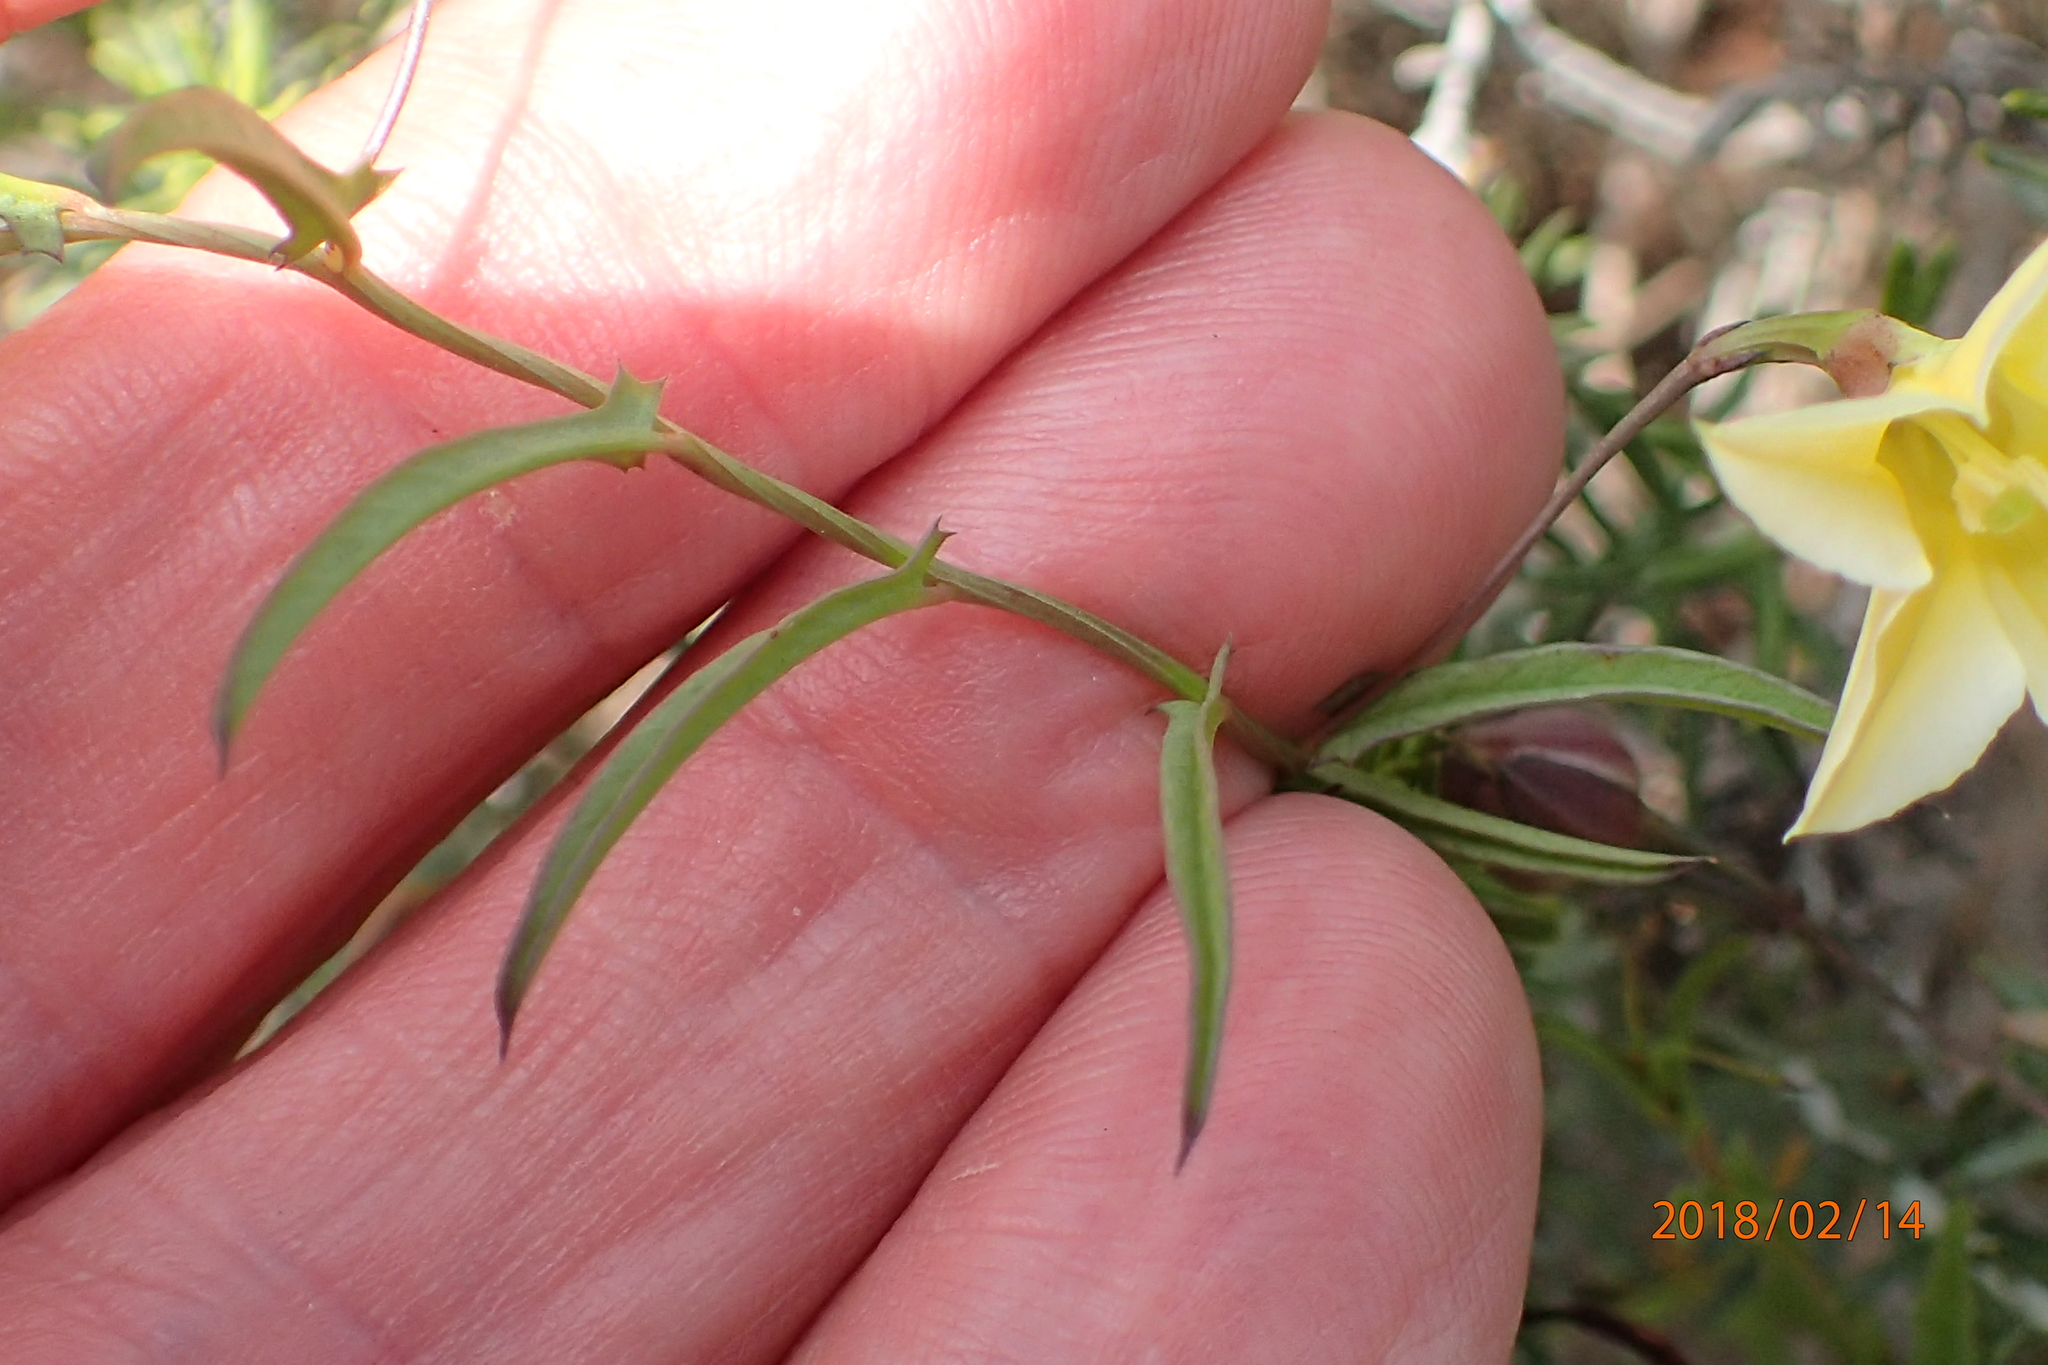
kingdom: Plantae
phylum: Tracheophyta
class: Magnoliopsida
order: Solanales
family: Convolvulaceae
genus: Xenostegia
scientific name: Xenostegia tridentata
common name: African morningvine
